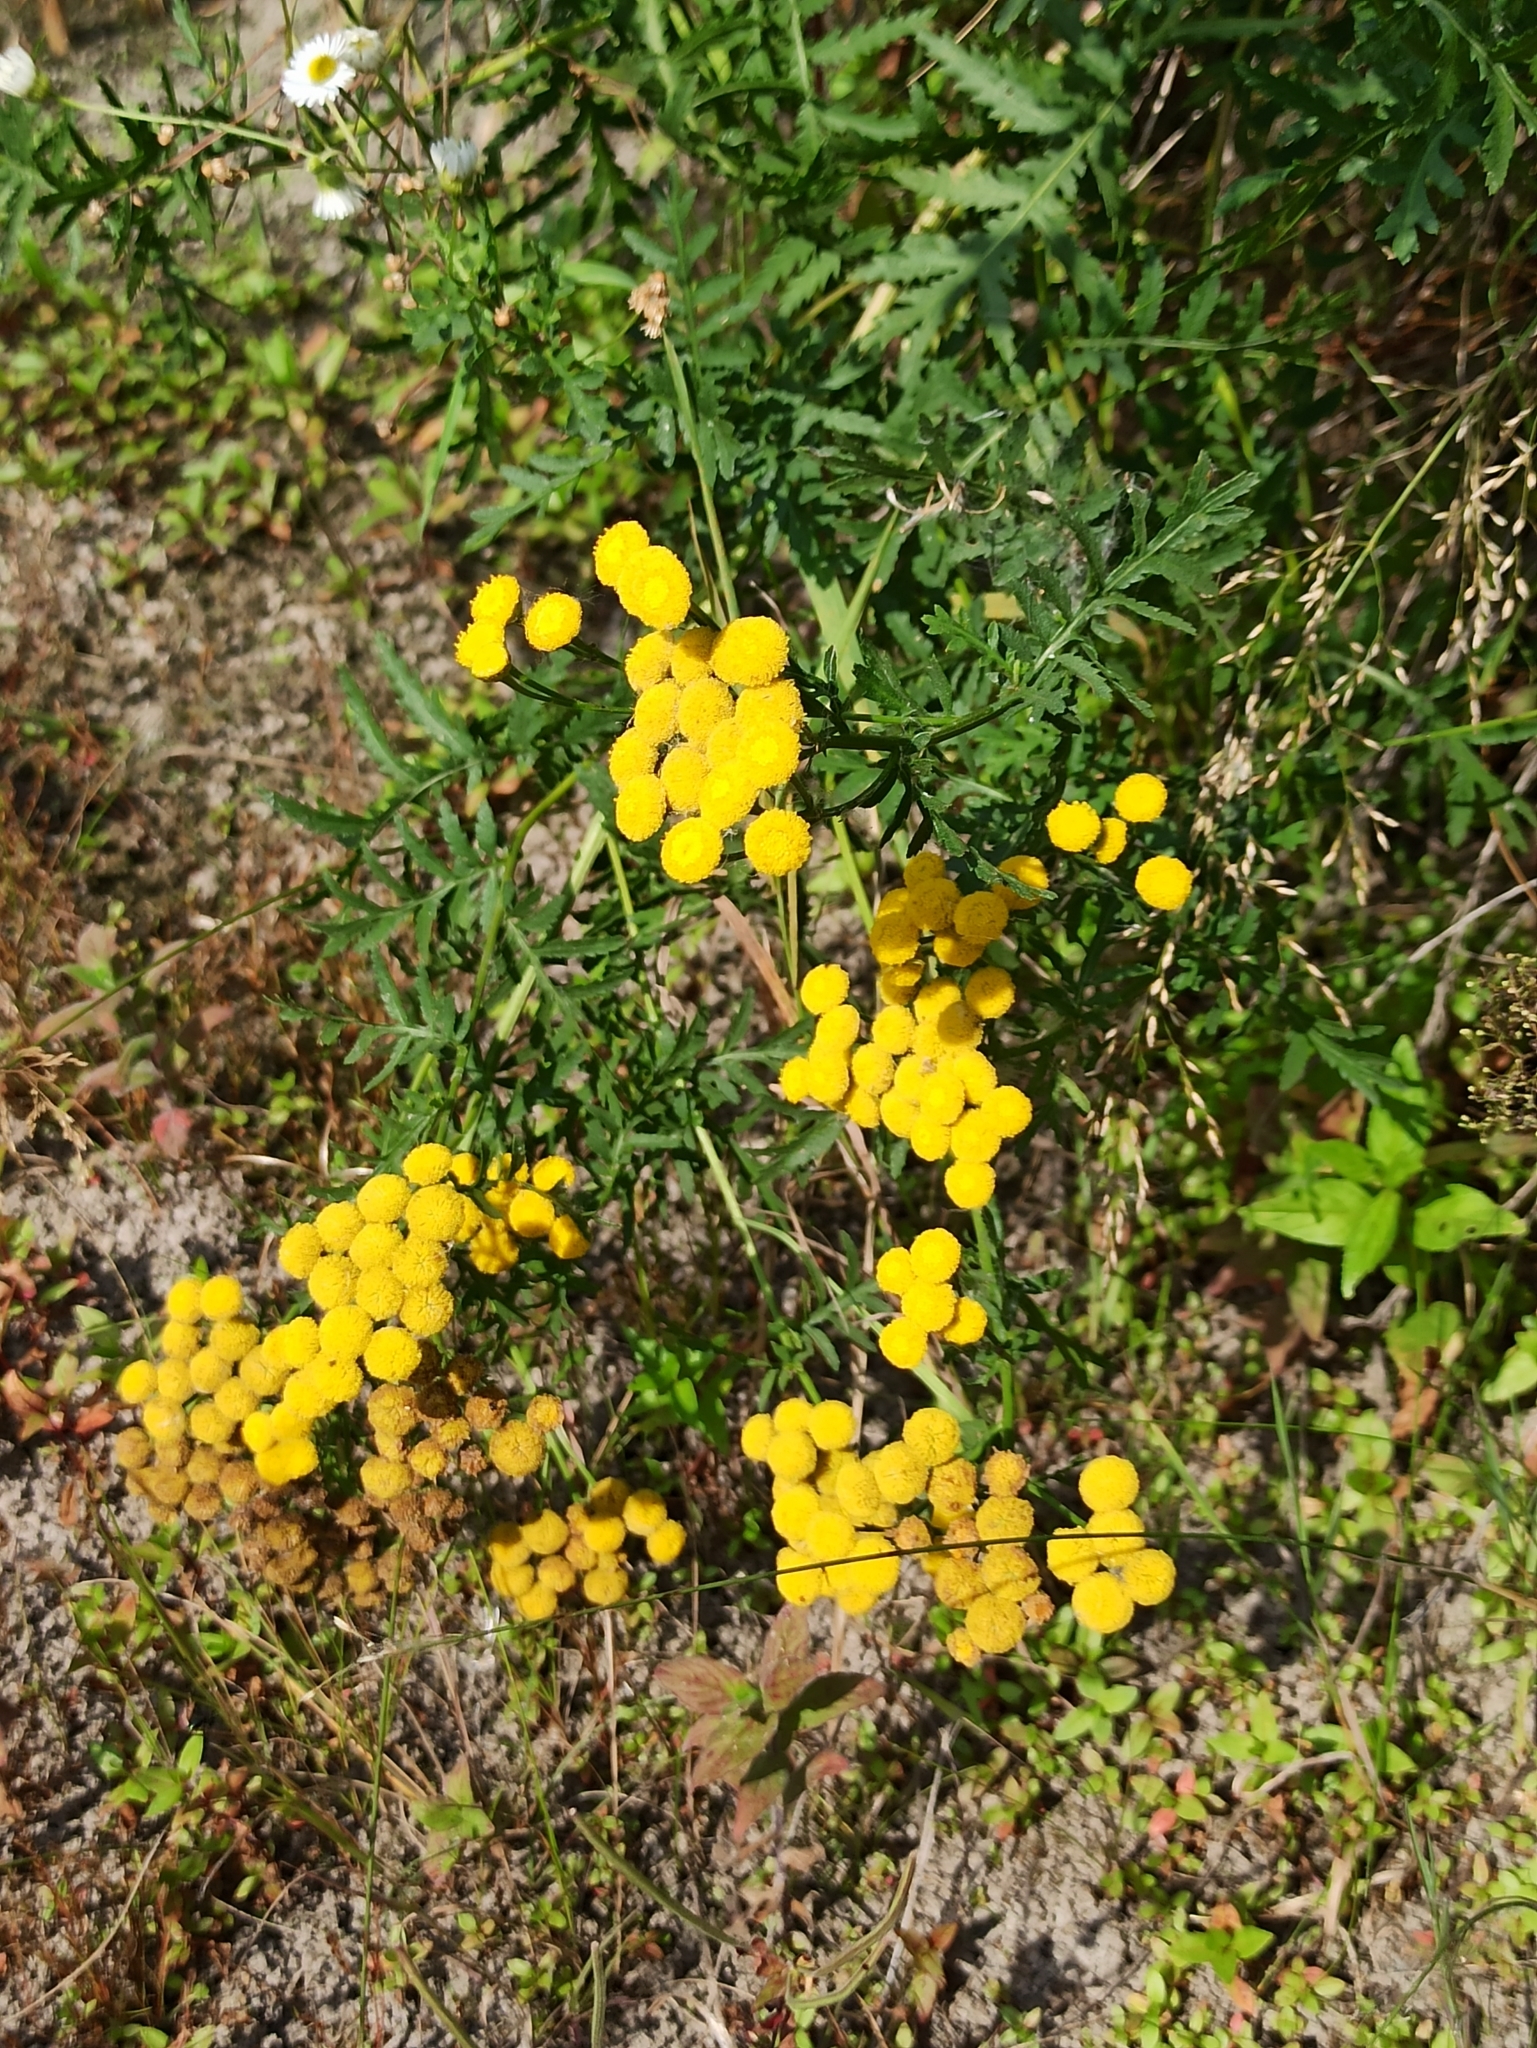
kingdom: Plantae
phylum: Tracheophyta
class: Magnoliopsida
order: Asterales
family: Asteraceae
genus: Tanacetum
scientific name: Tanacetum vulgare
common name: Common tansy
